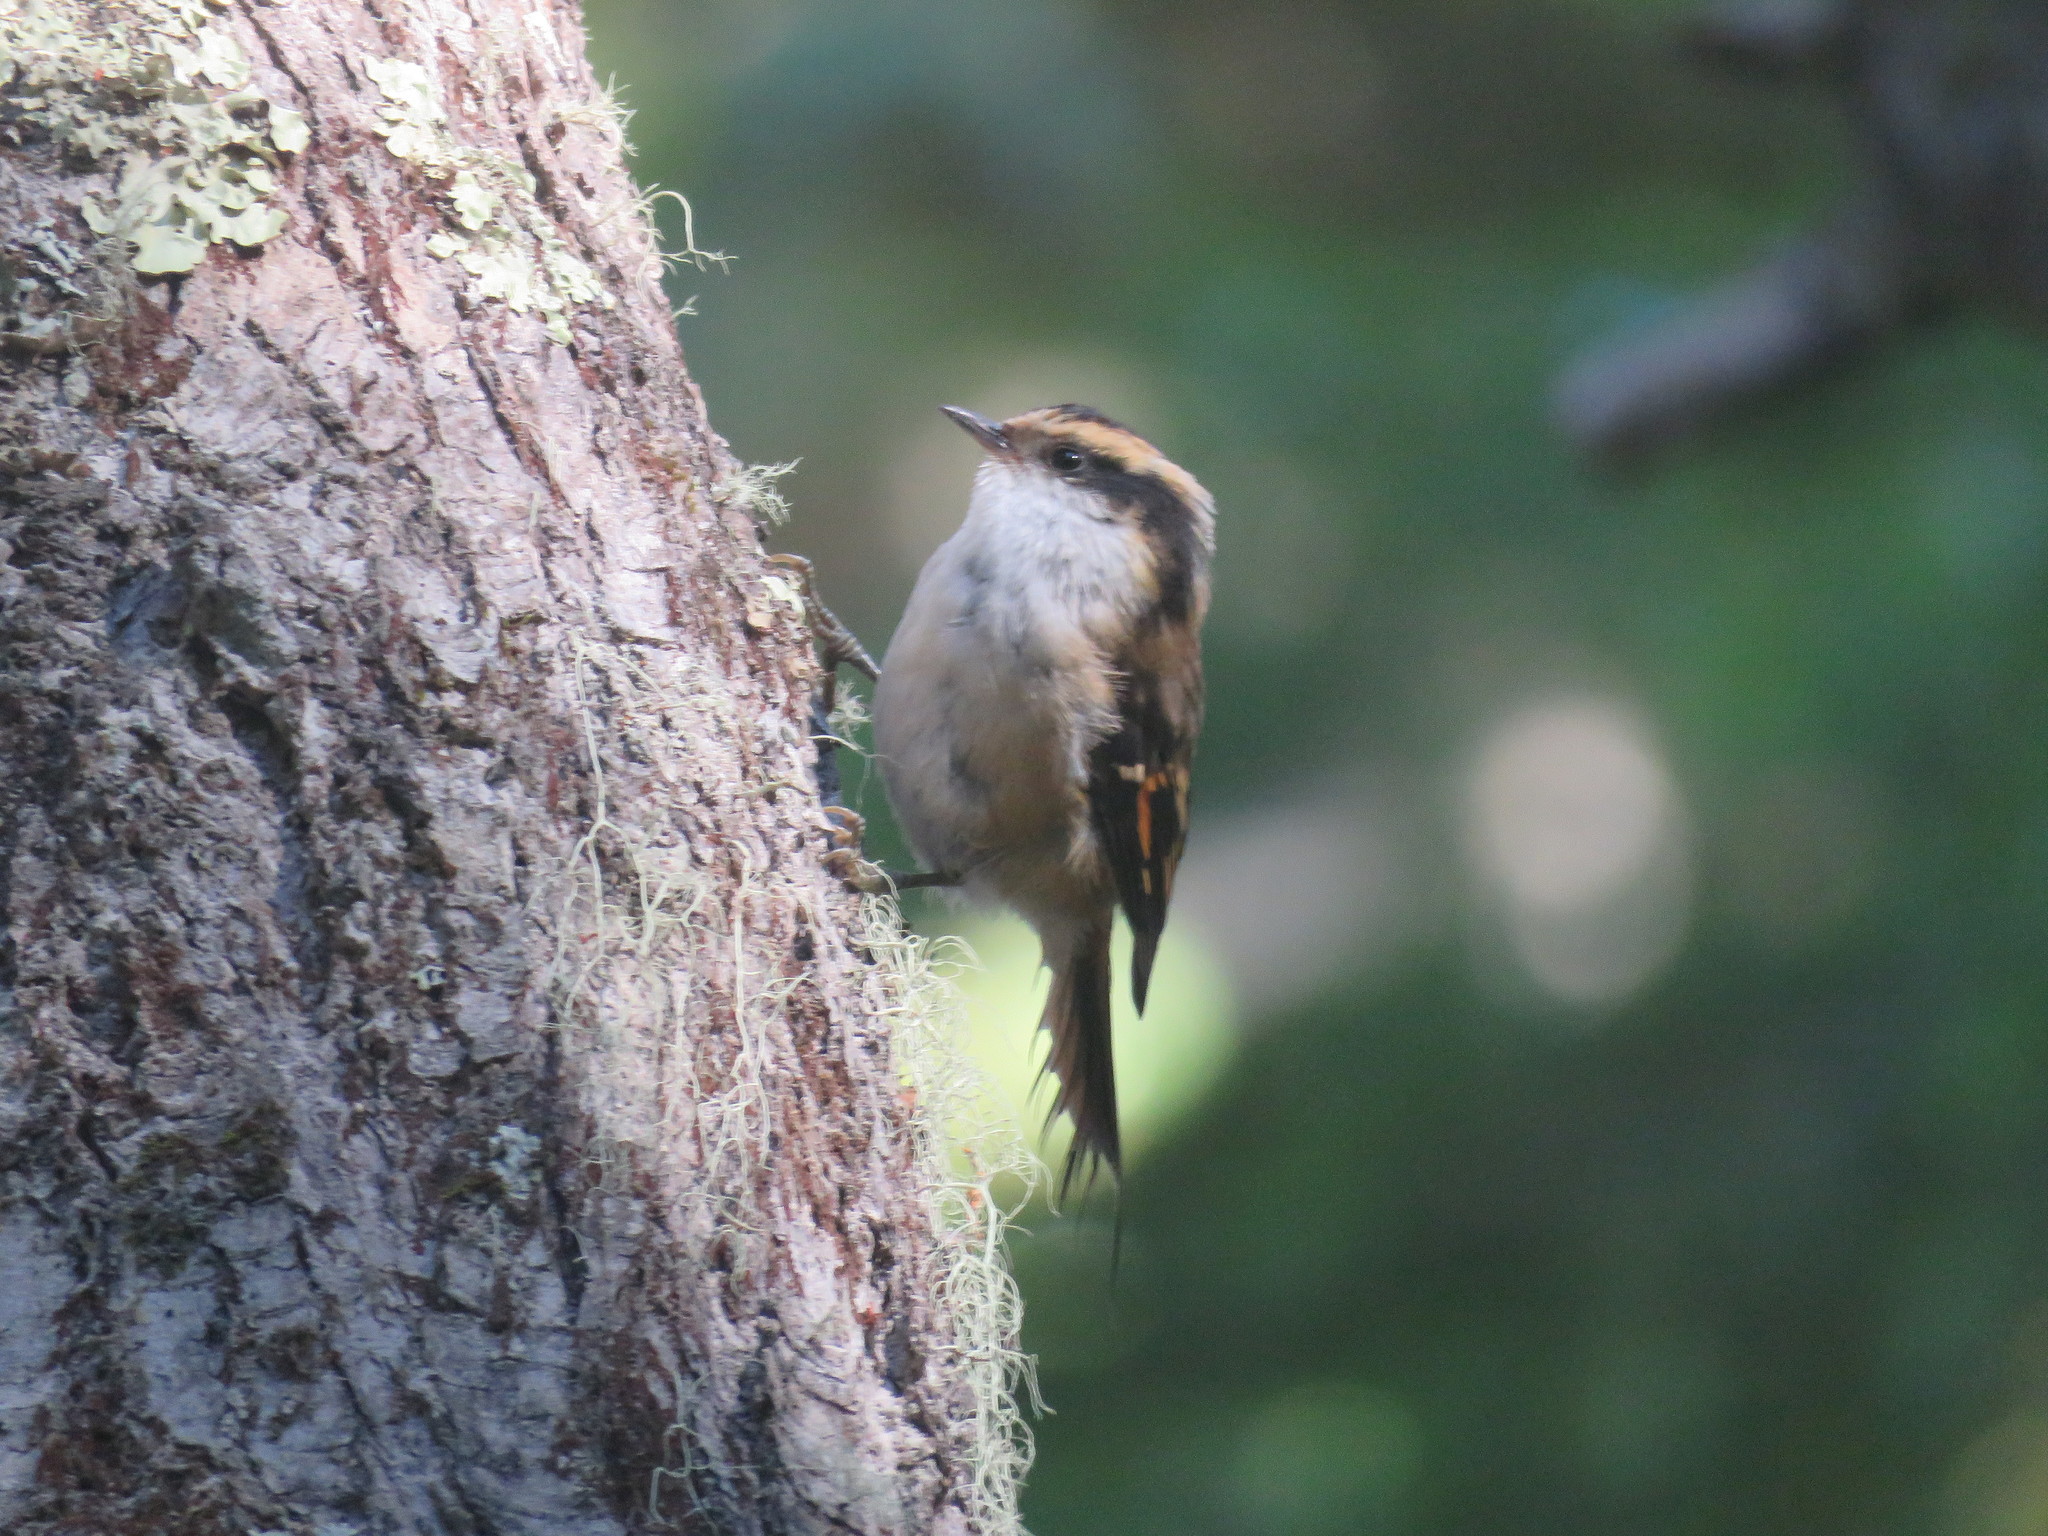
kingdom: Animalia
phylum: Chordata
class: Aves
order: Passeriformes
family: Furnariidae
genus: Aphrastura
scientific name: Aphrastura spinicauda
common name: Thorn-tailed rayadito
